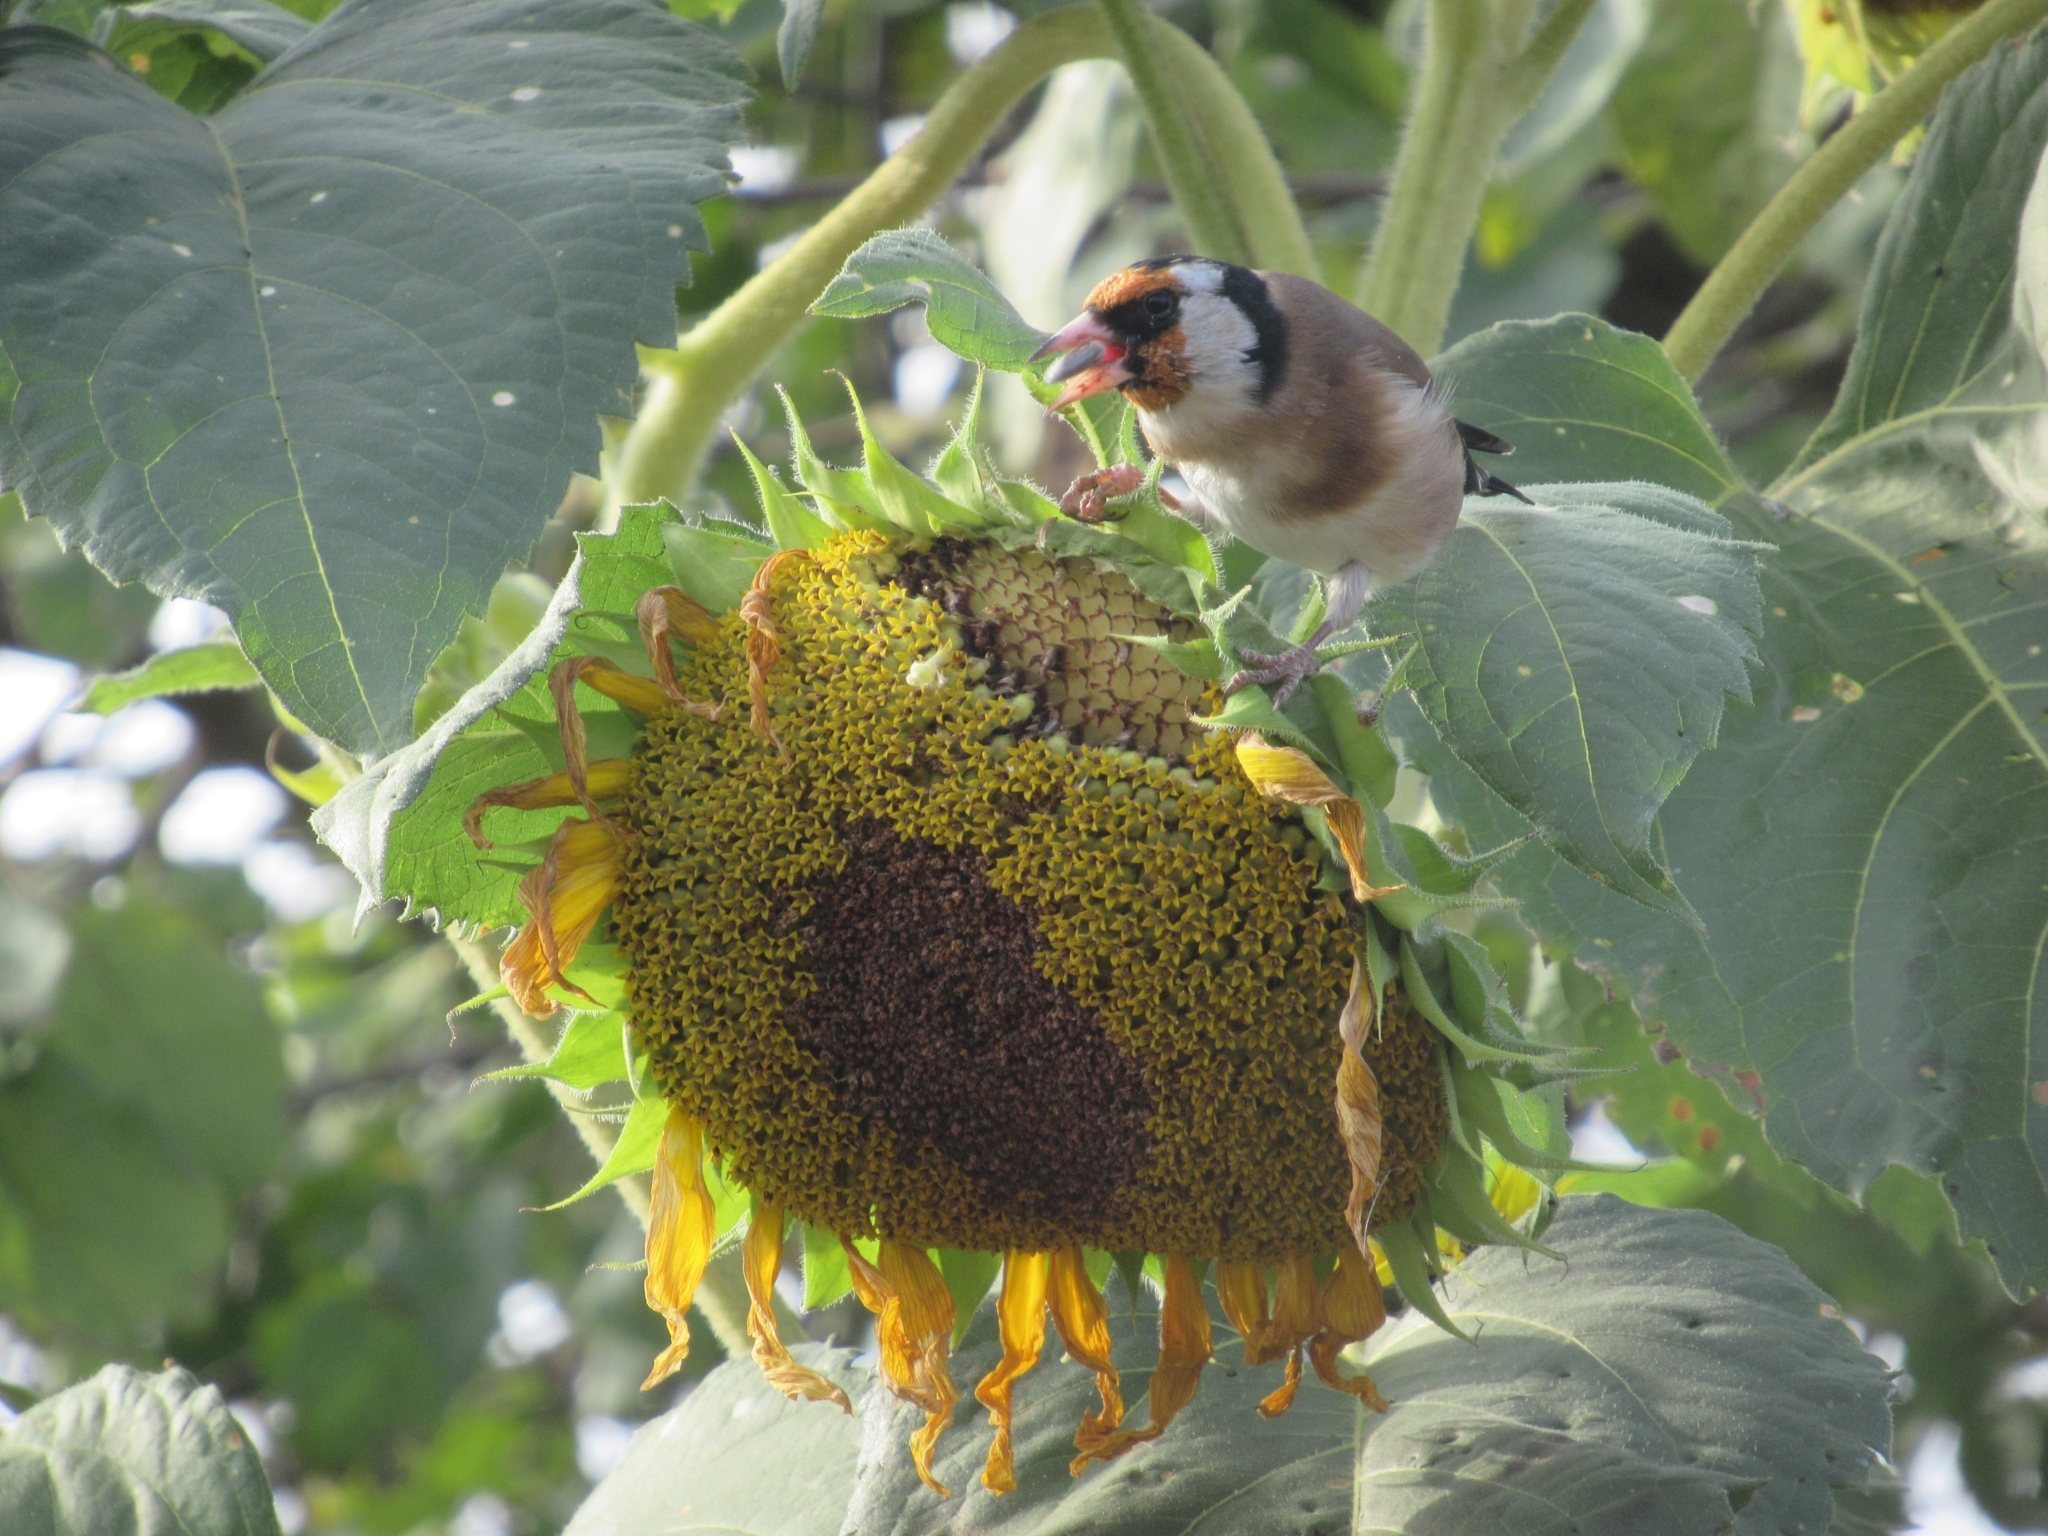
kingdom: Animalia
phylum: Chordata
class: Aves
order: Passeriformes
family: Fringillidae
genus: Carduelis
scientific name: Carduelis carduelis
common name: European goldfinch
